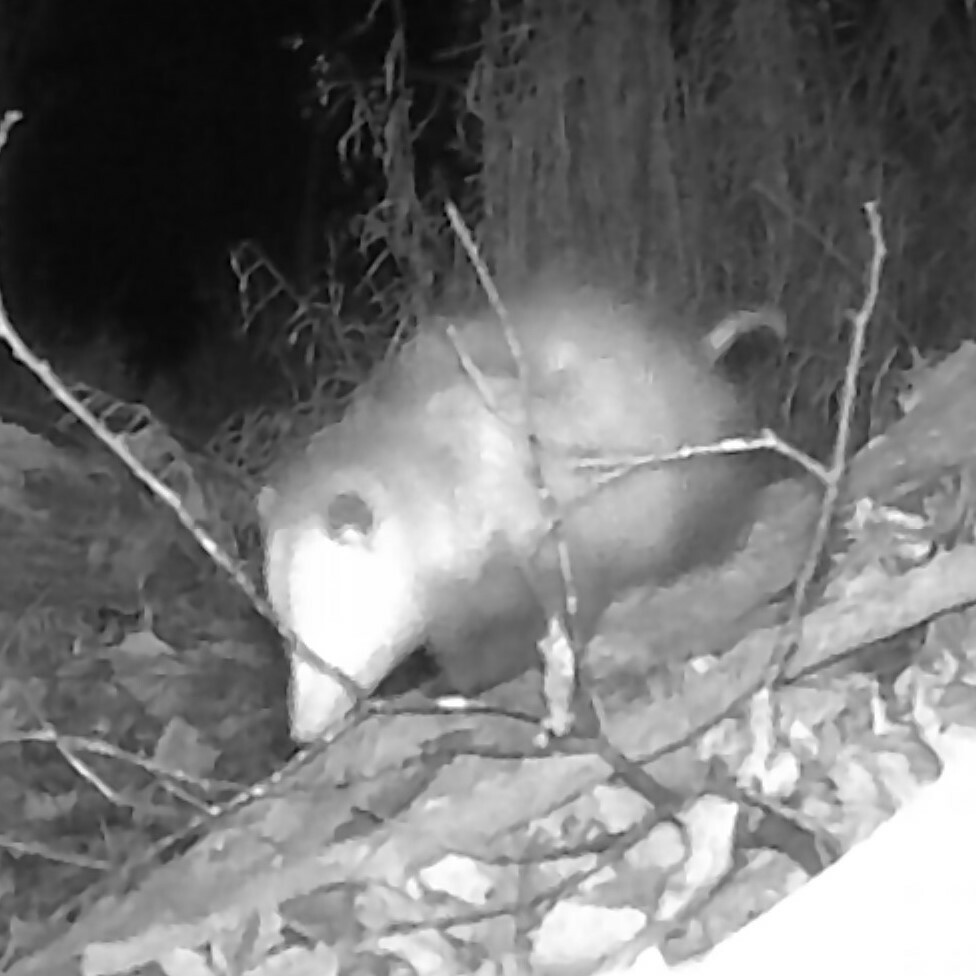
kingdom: Animalia
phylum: Chordata
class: Mammalia
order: Didelphimorphia
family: Didelphidae
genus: Didelphis
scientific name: Didelphis virginiana
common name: Virginia opossum
